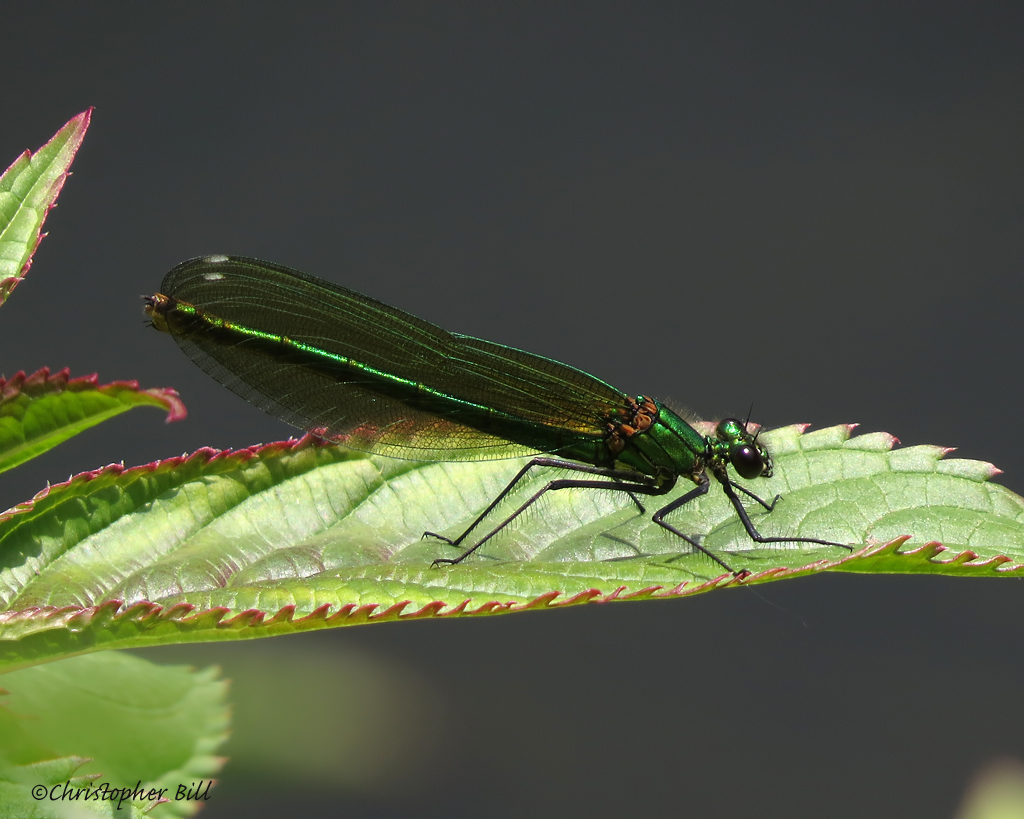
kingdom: Animalia
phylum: Arthropoda
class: Insecta
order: Odonata
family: Calopterygidae
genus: Calopteryx
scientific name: Calopteryx splendens
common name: Banded demoiselle
